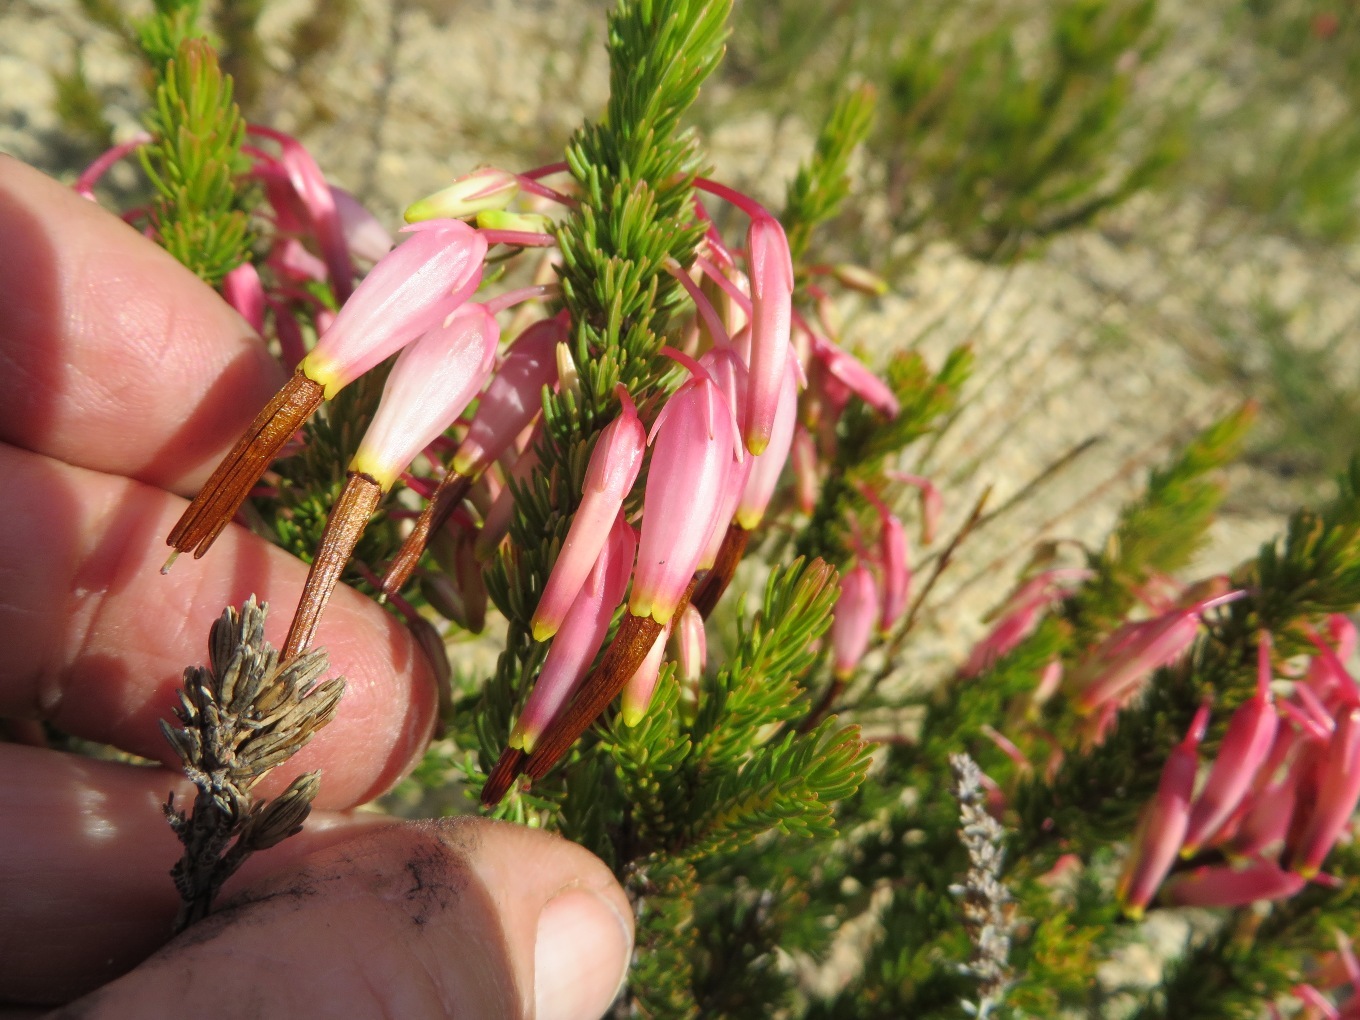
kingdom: Plantae
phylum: Tracheophyta
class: Magnoliopsida
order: Ericales
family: Ericaceae
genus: Erica
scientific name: Erica plukenetii
